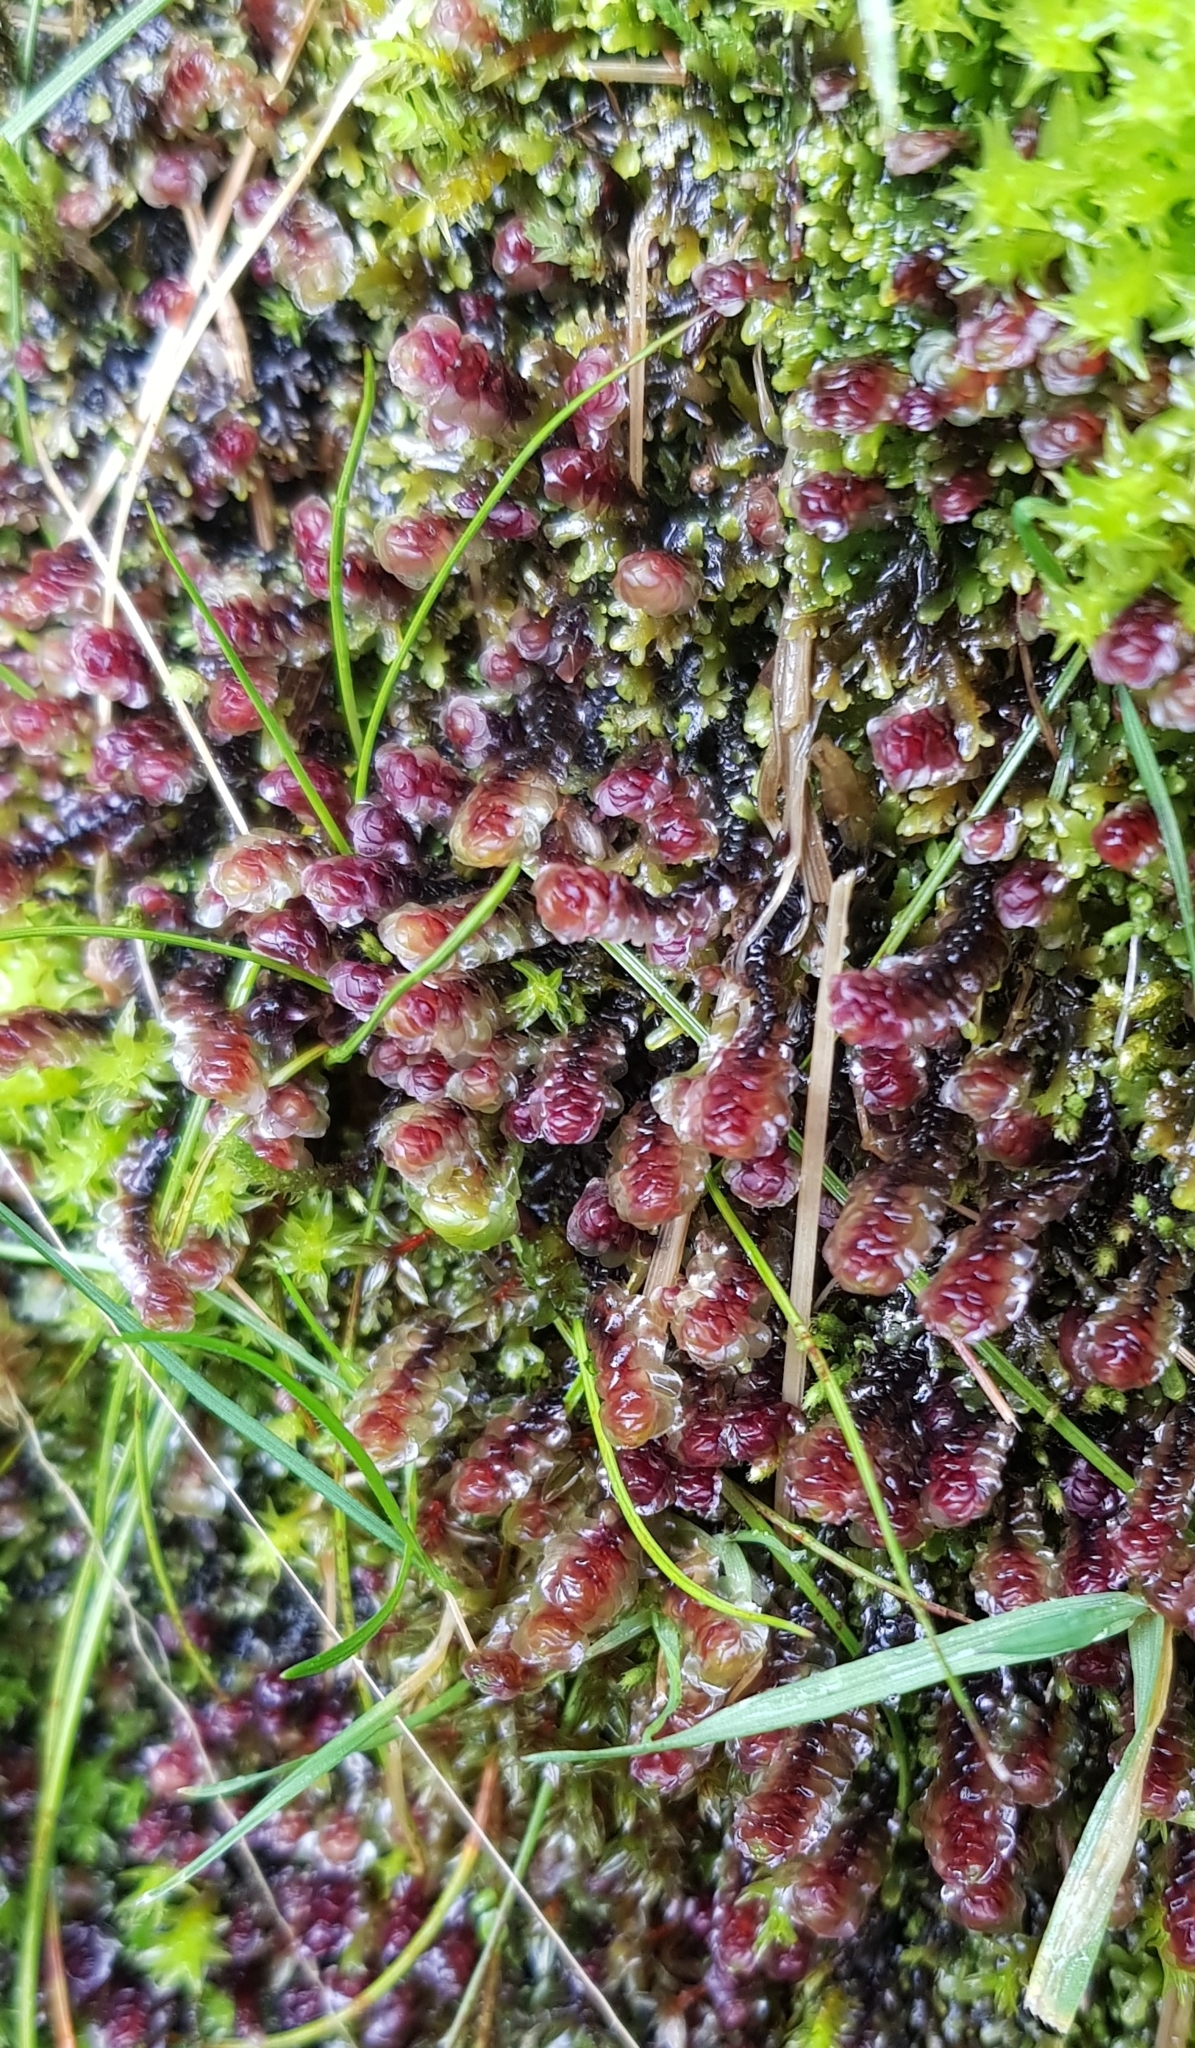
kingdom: Plantae
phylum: Marchantiophyta
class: Jungermanniopsida
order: Metzgeriales
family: Aneuraceae
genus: Riccardia
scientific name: Riccardia multifida
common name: Delicate germanderwort
